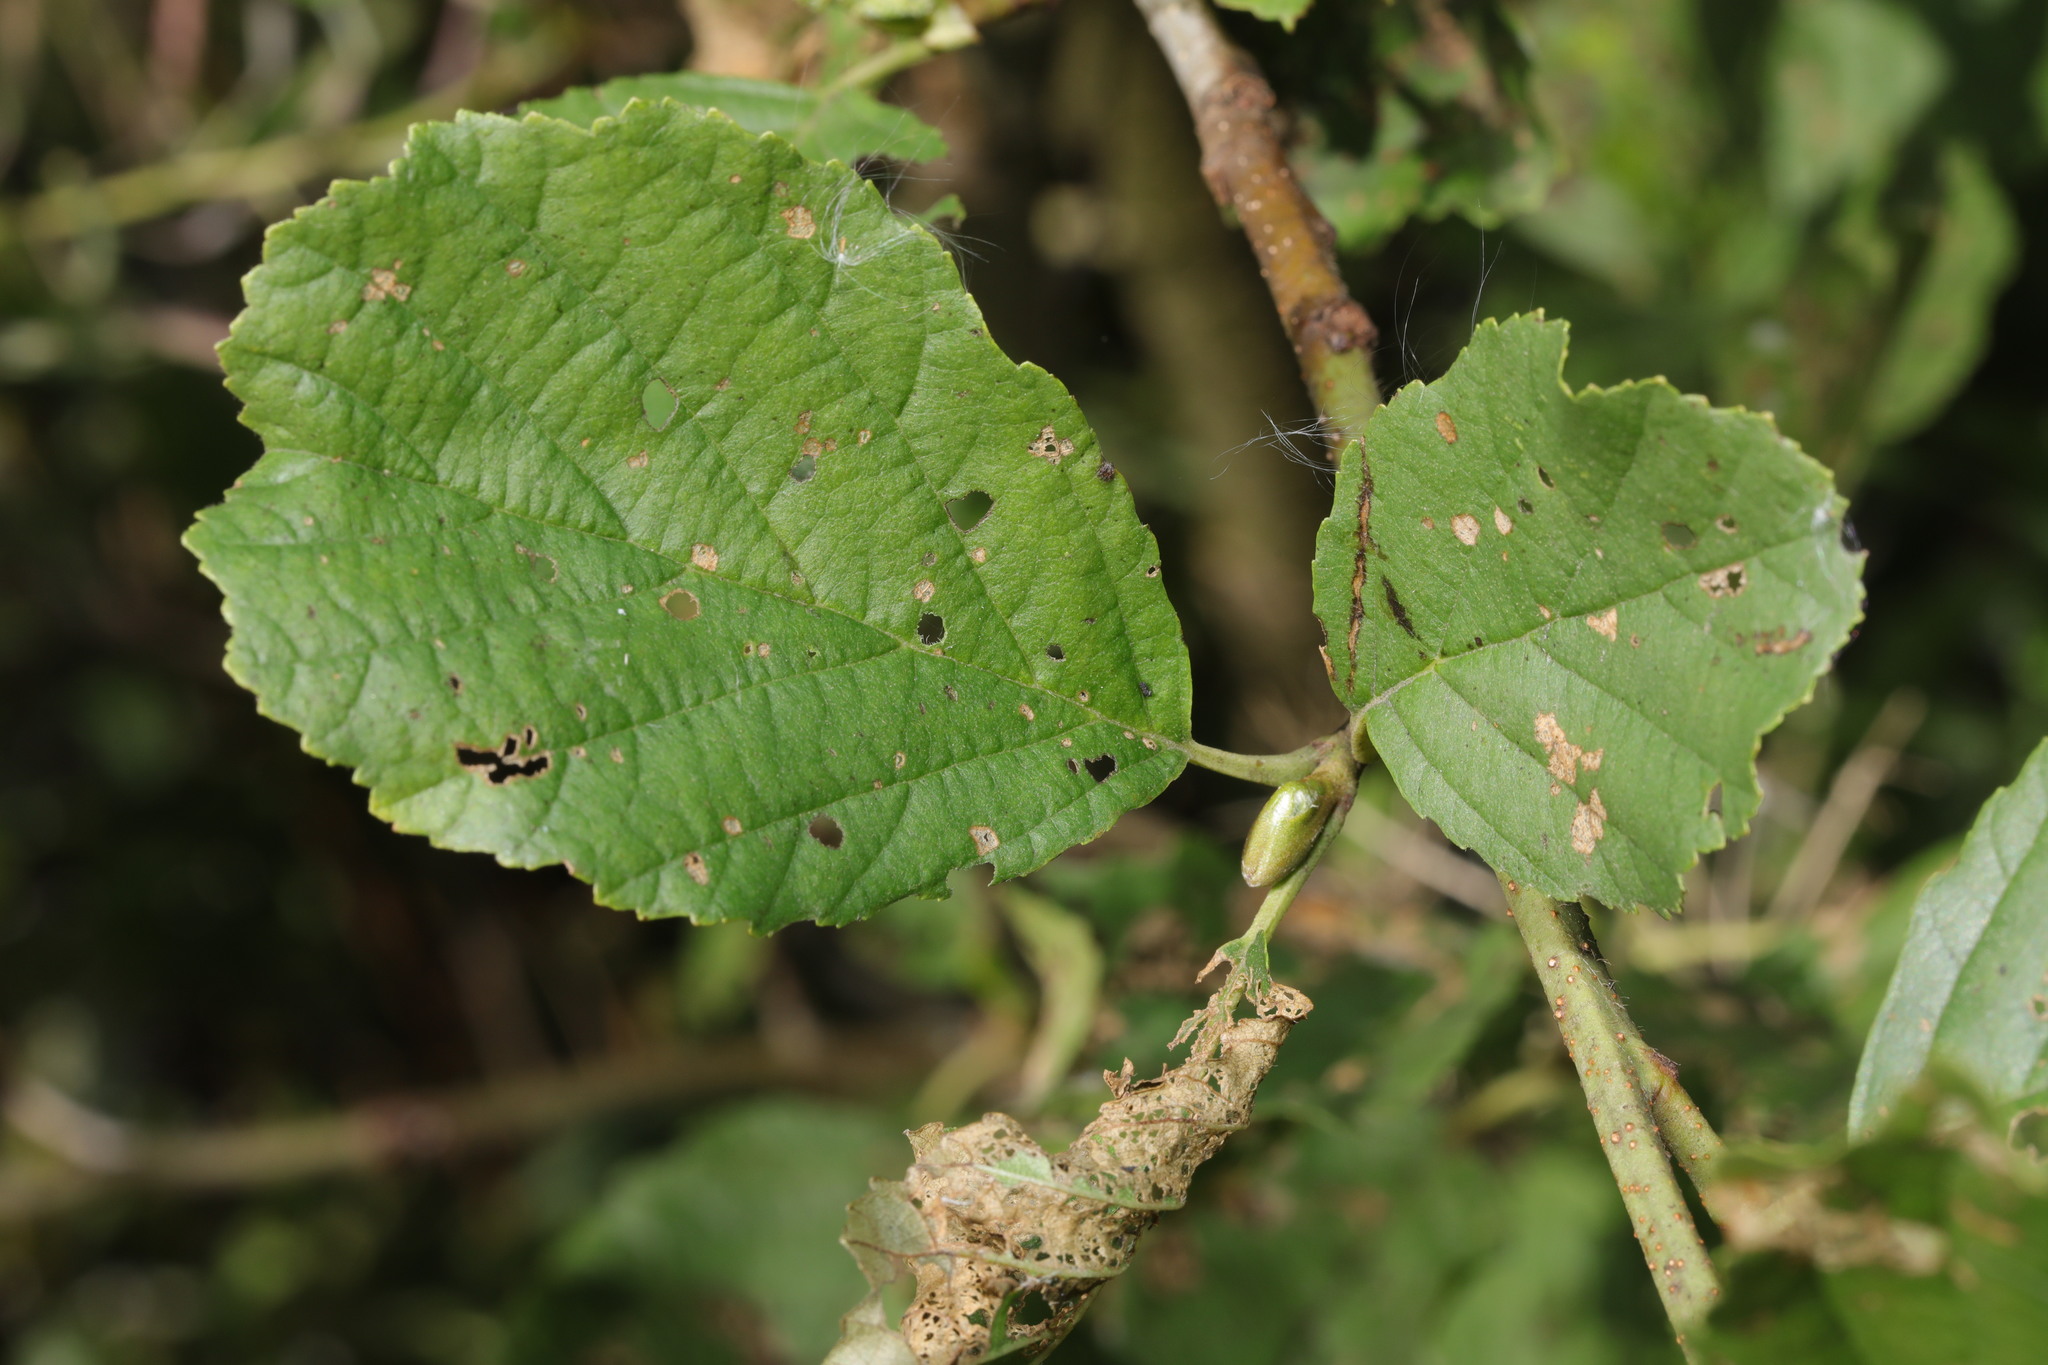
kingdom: Plantae
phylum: Tracheophyta
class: Magnoliopsida
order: Fagales
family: Betulaceae
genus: Alnus
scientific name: Alnus glutinosa
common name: Black alder
